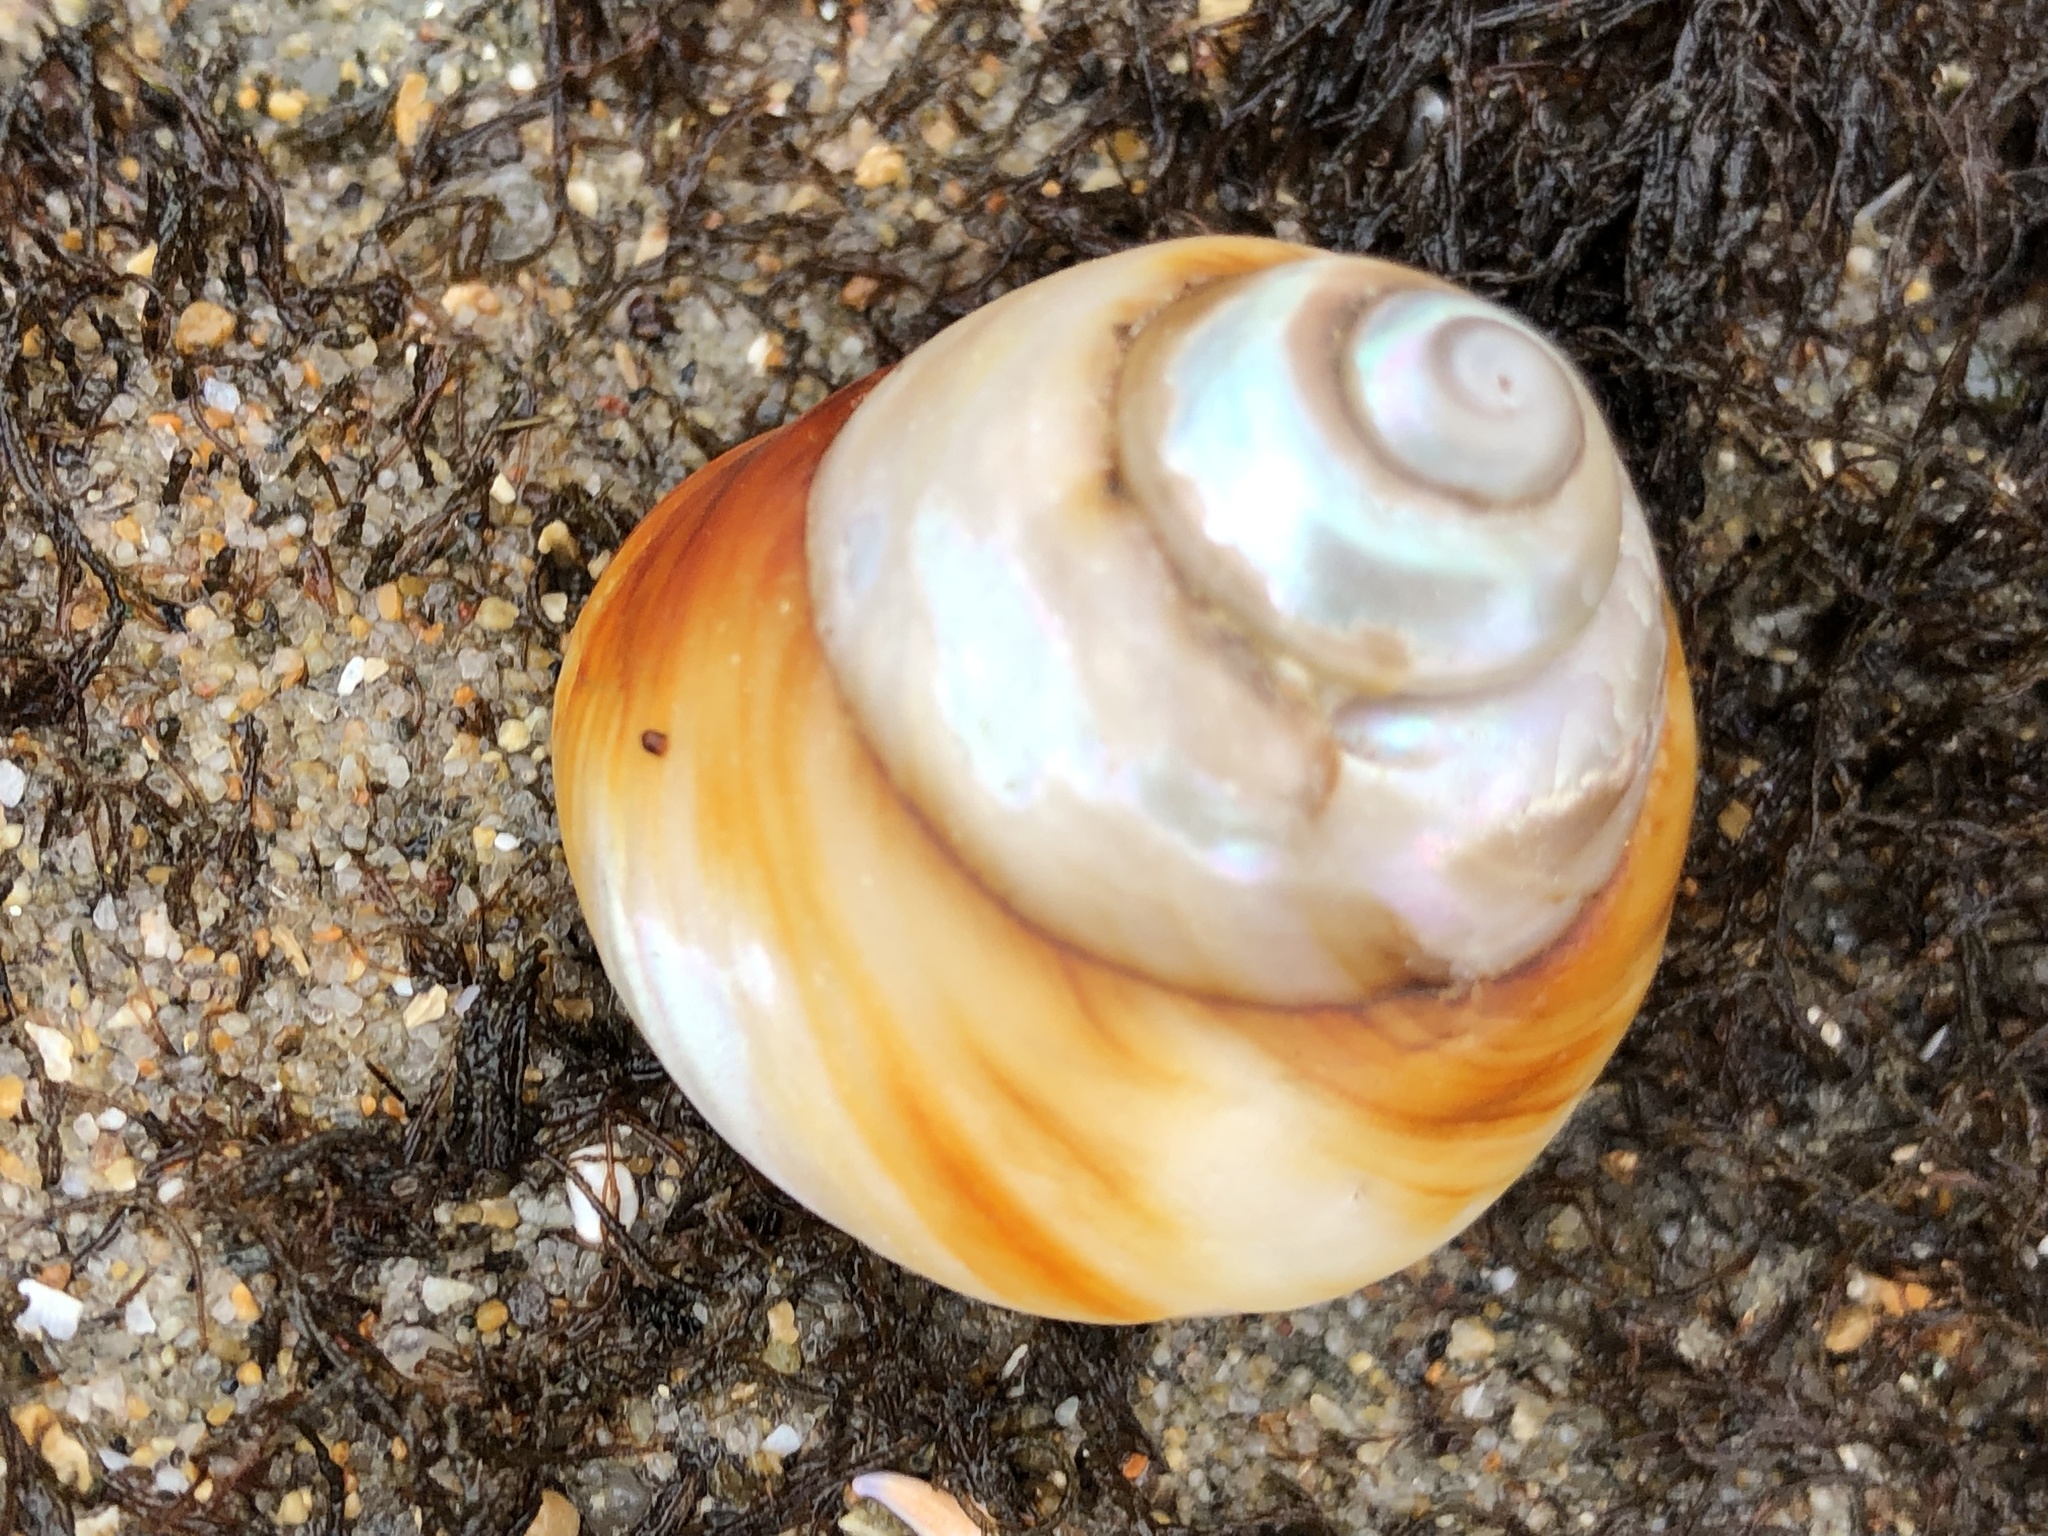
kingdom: Animalia
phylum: Mollusca
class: Gastropoda
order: Trochida
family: Tegulidae
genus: Tegula
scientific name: Tegula brunnea
